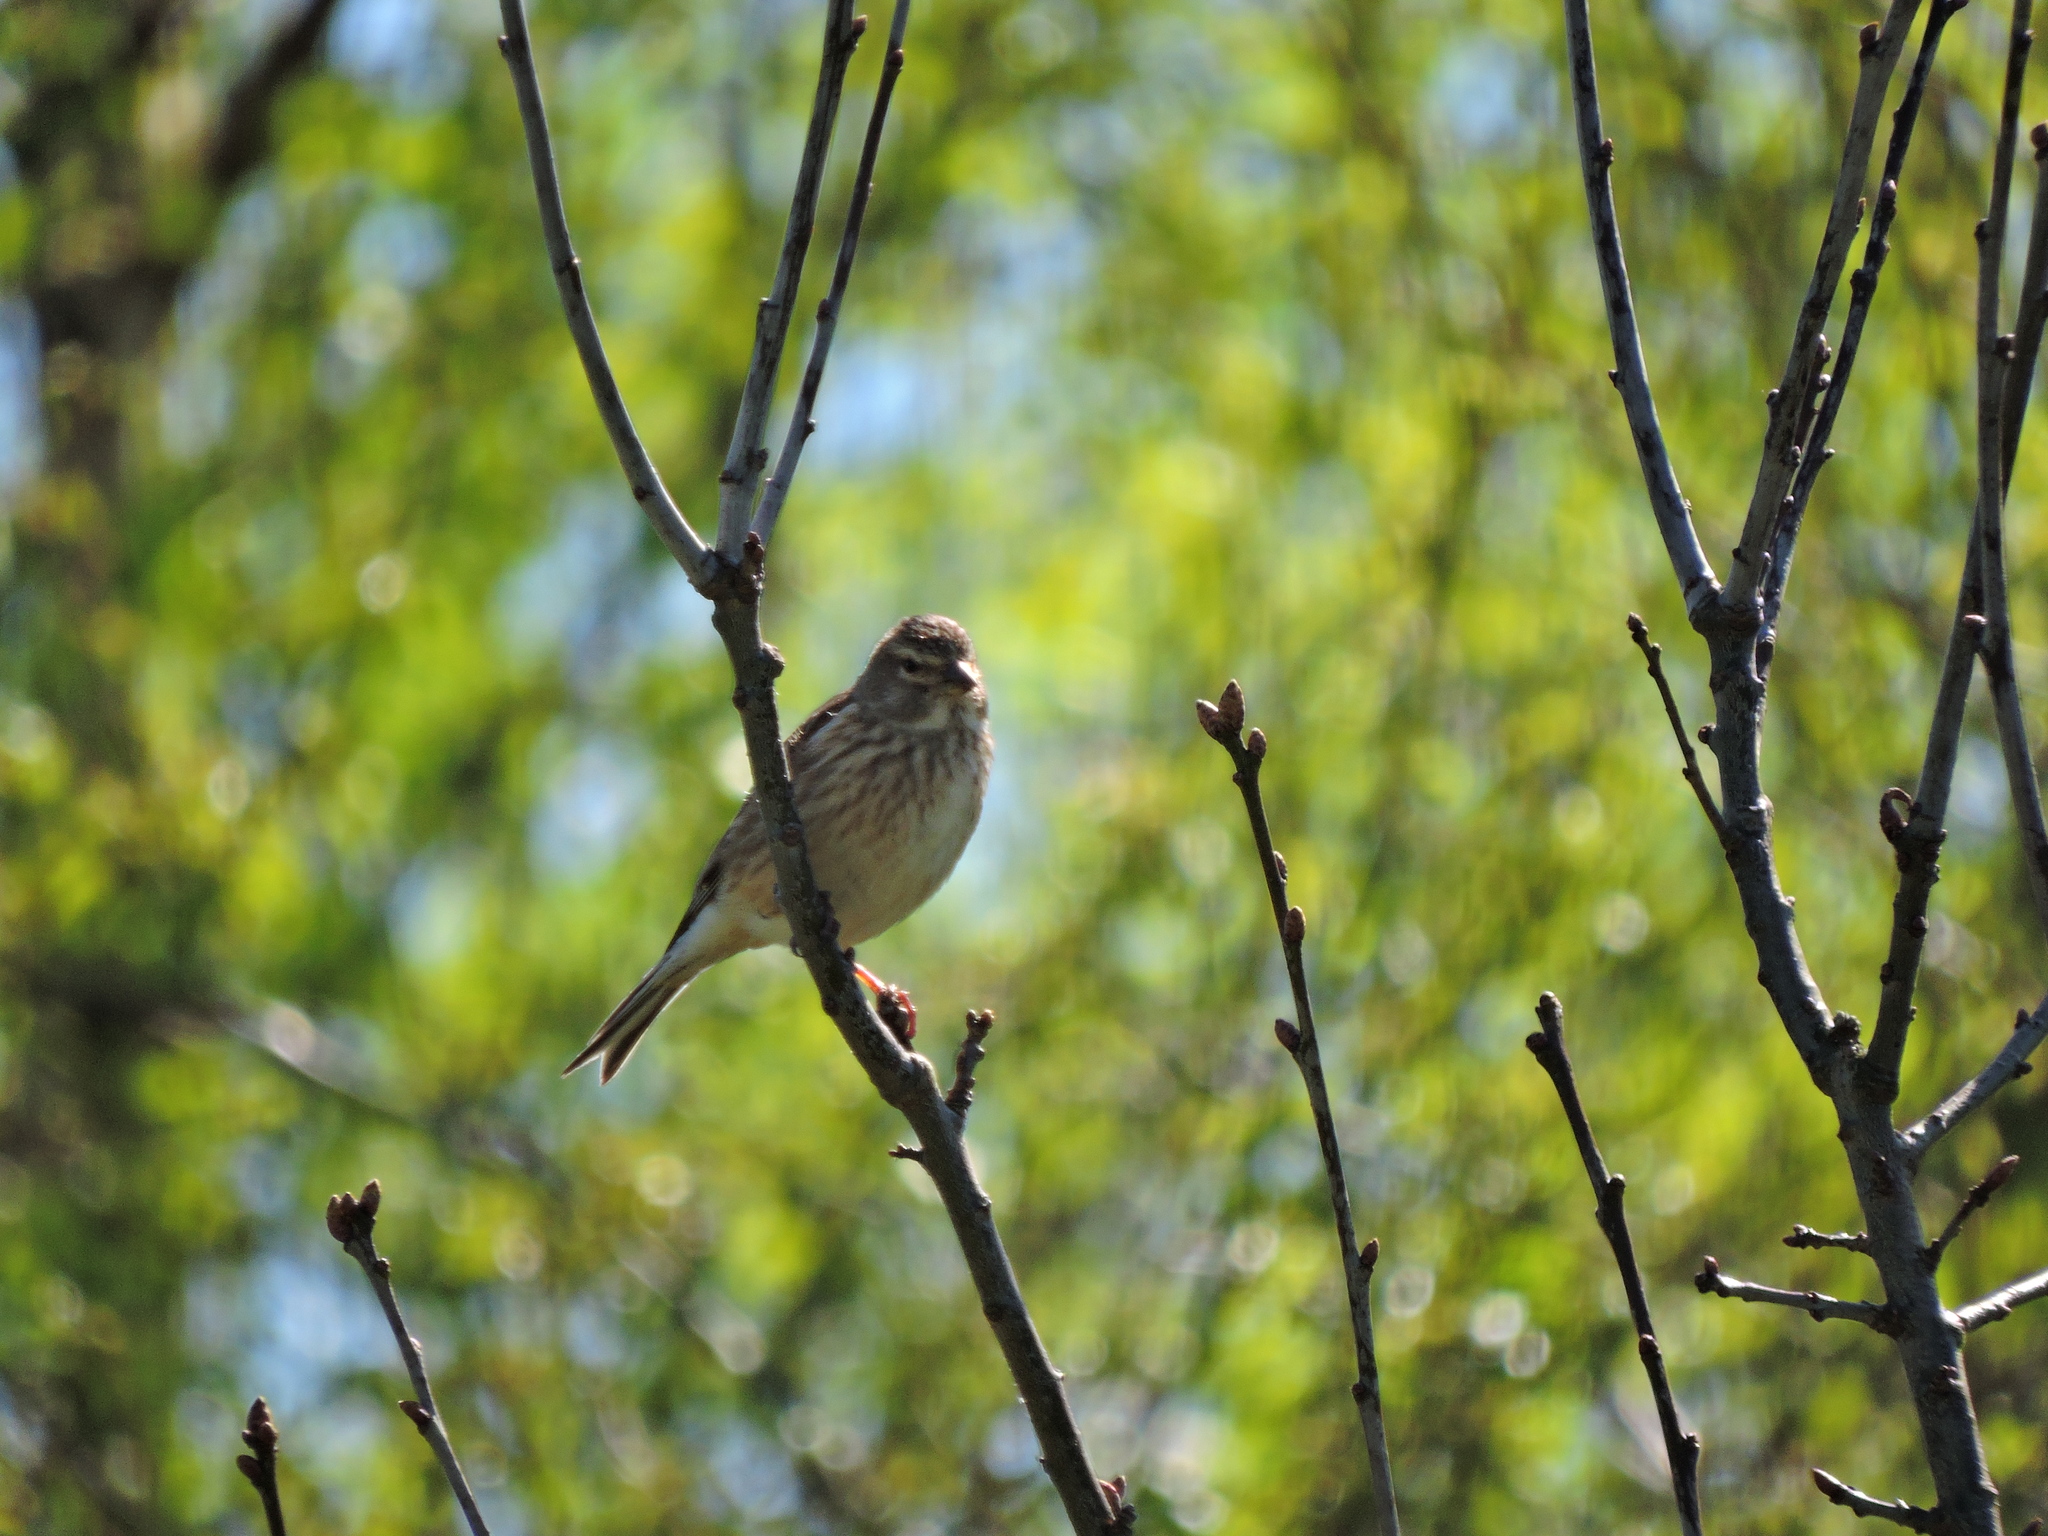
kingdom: Animalia
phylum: Chordata
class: Aves
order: Passeriformes
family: Fringillidae
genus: Linaria
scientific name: Linaria cannabina
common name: Common linnet
